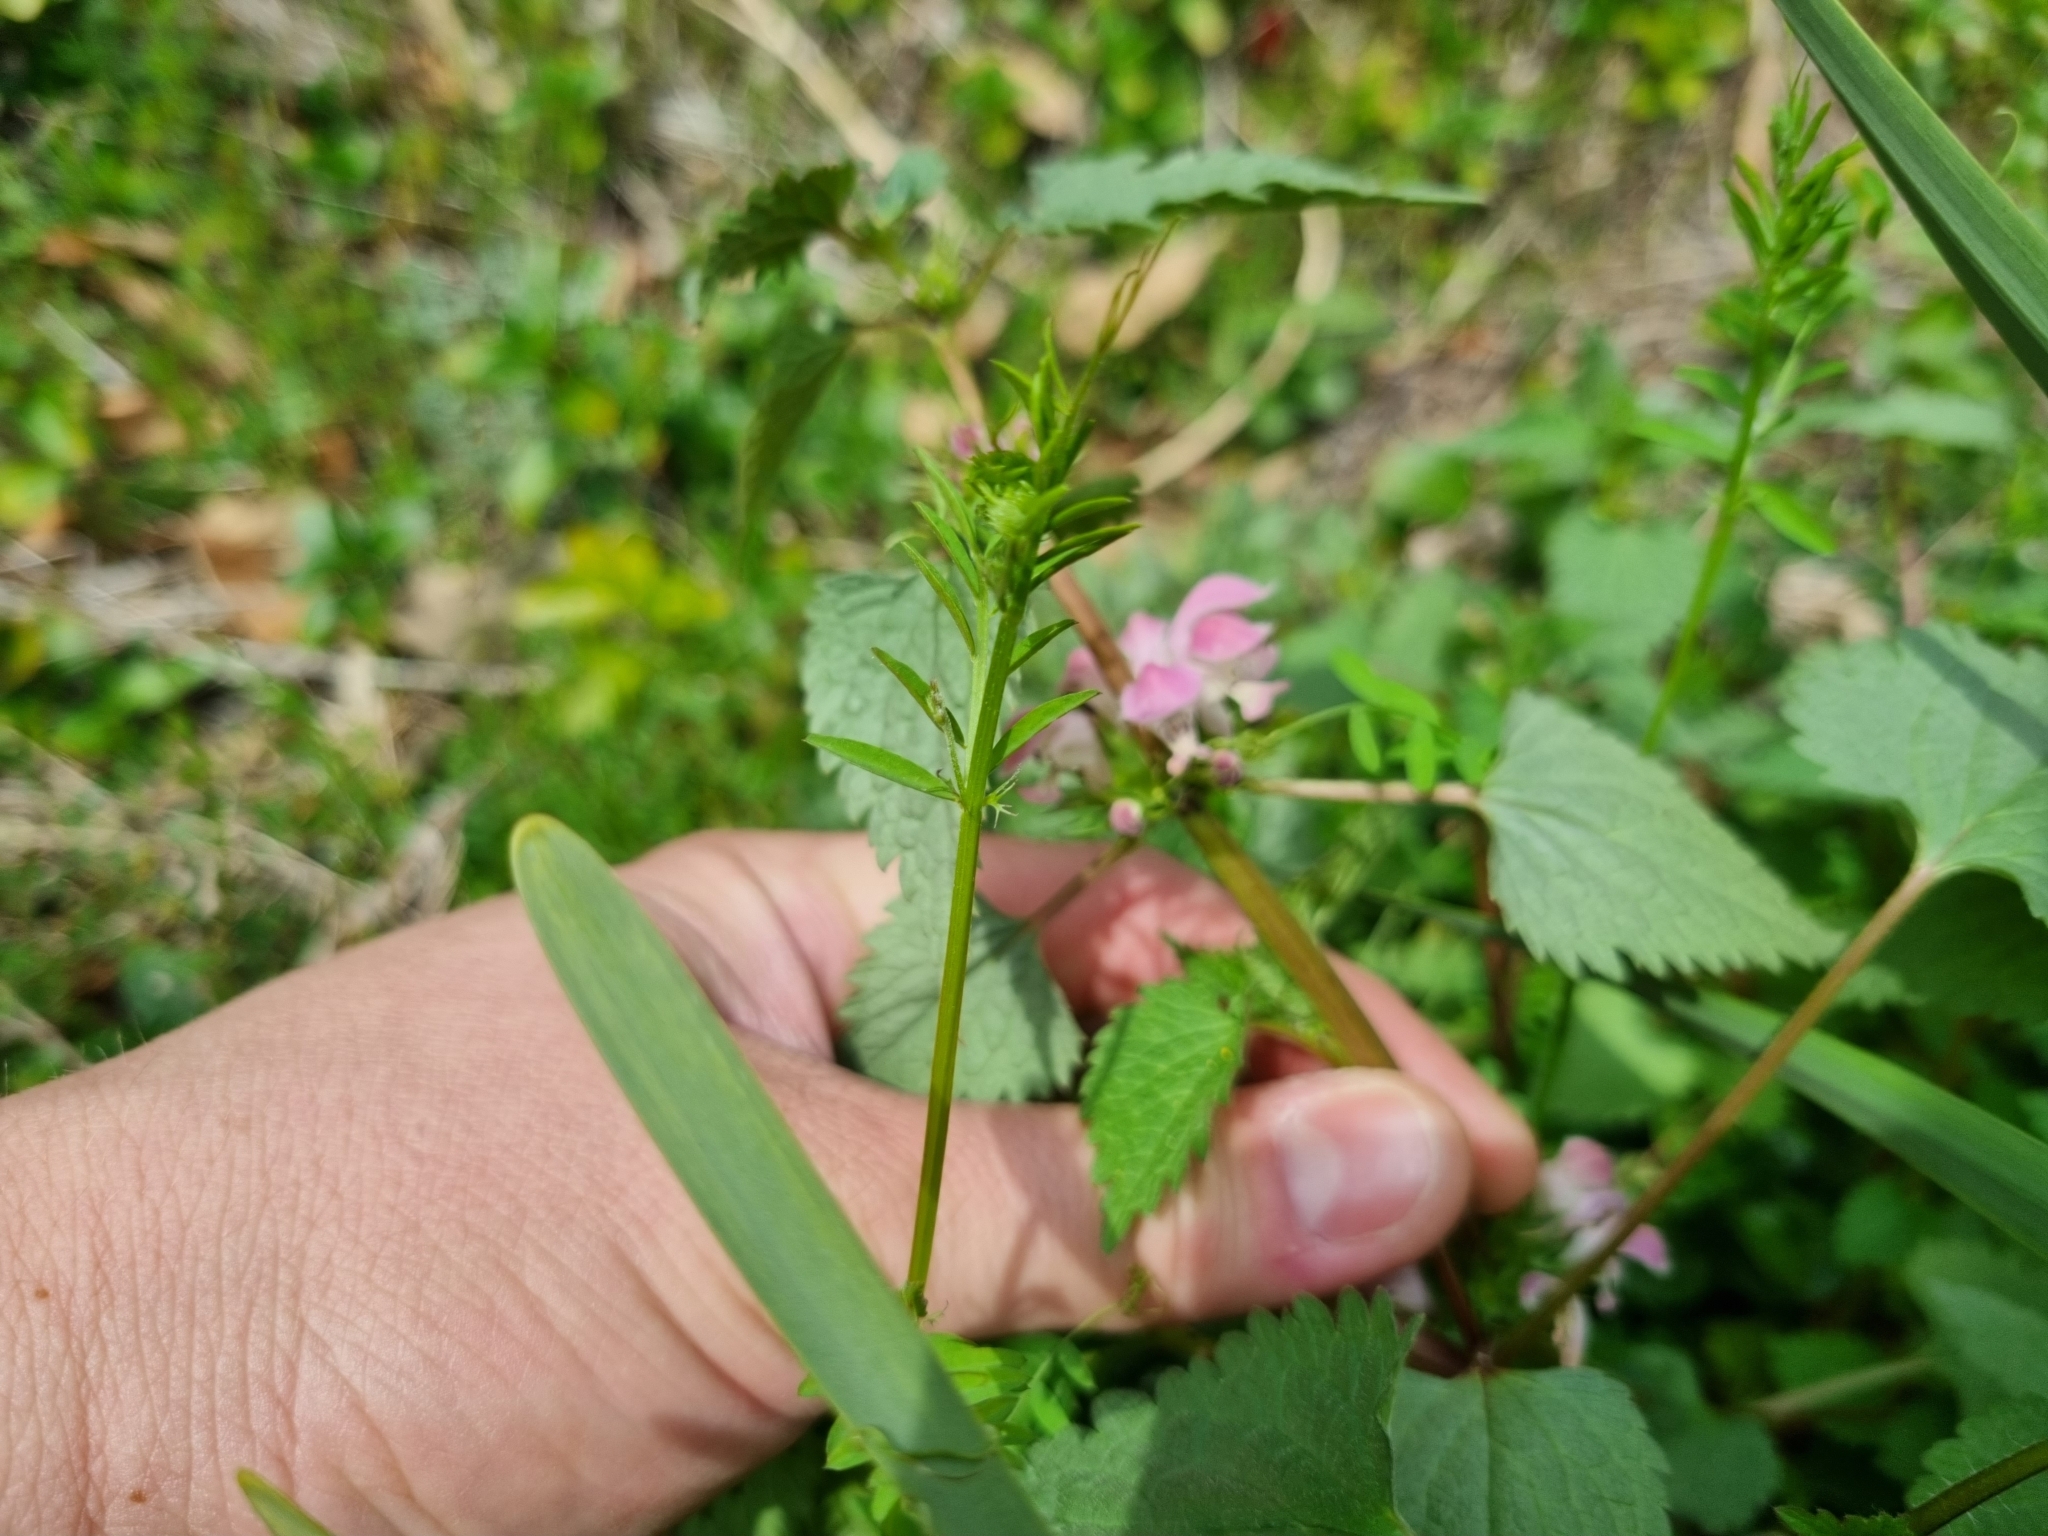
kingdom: Plantae
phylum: Tracheophyta
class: Magnoliopsida
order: Lamiales
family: Lamiaceae
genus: Lamium
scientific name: Lamium album
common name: White dead-nettle
